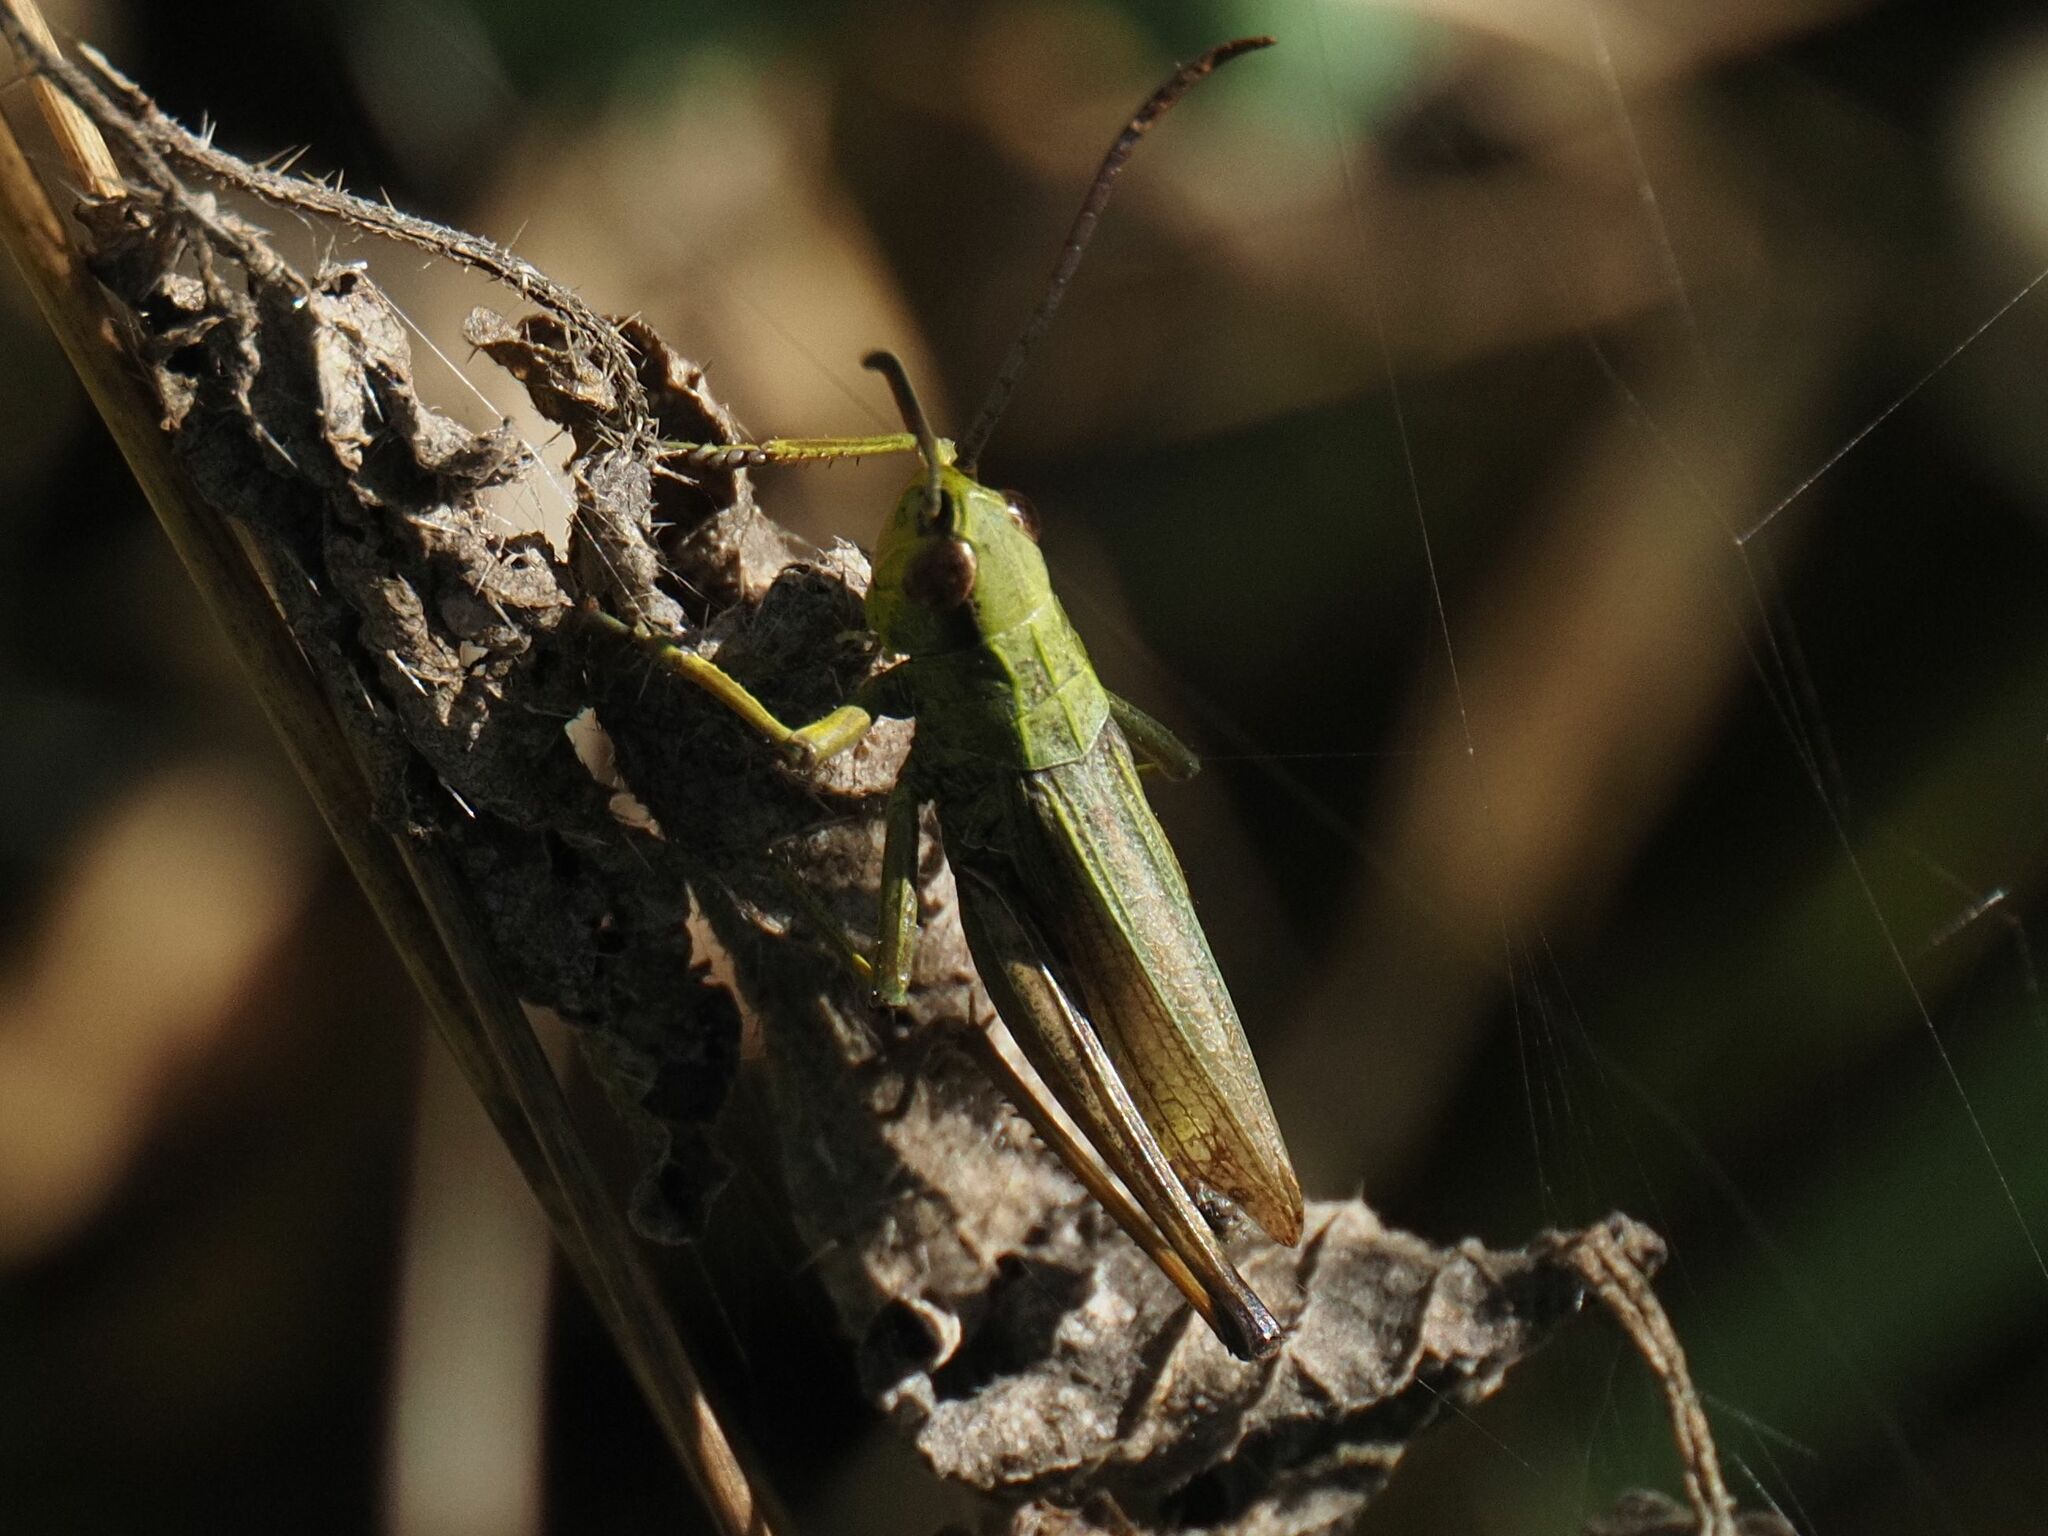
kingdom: Animalia
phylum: Arthropoda
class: Insecta
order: Orthoptera
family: Acrididae
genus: Pseudochorthippus
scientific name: Pseudochorthippus parallelus
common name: Meadow grasshopper
